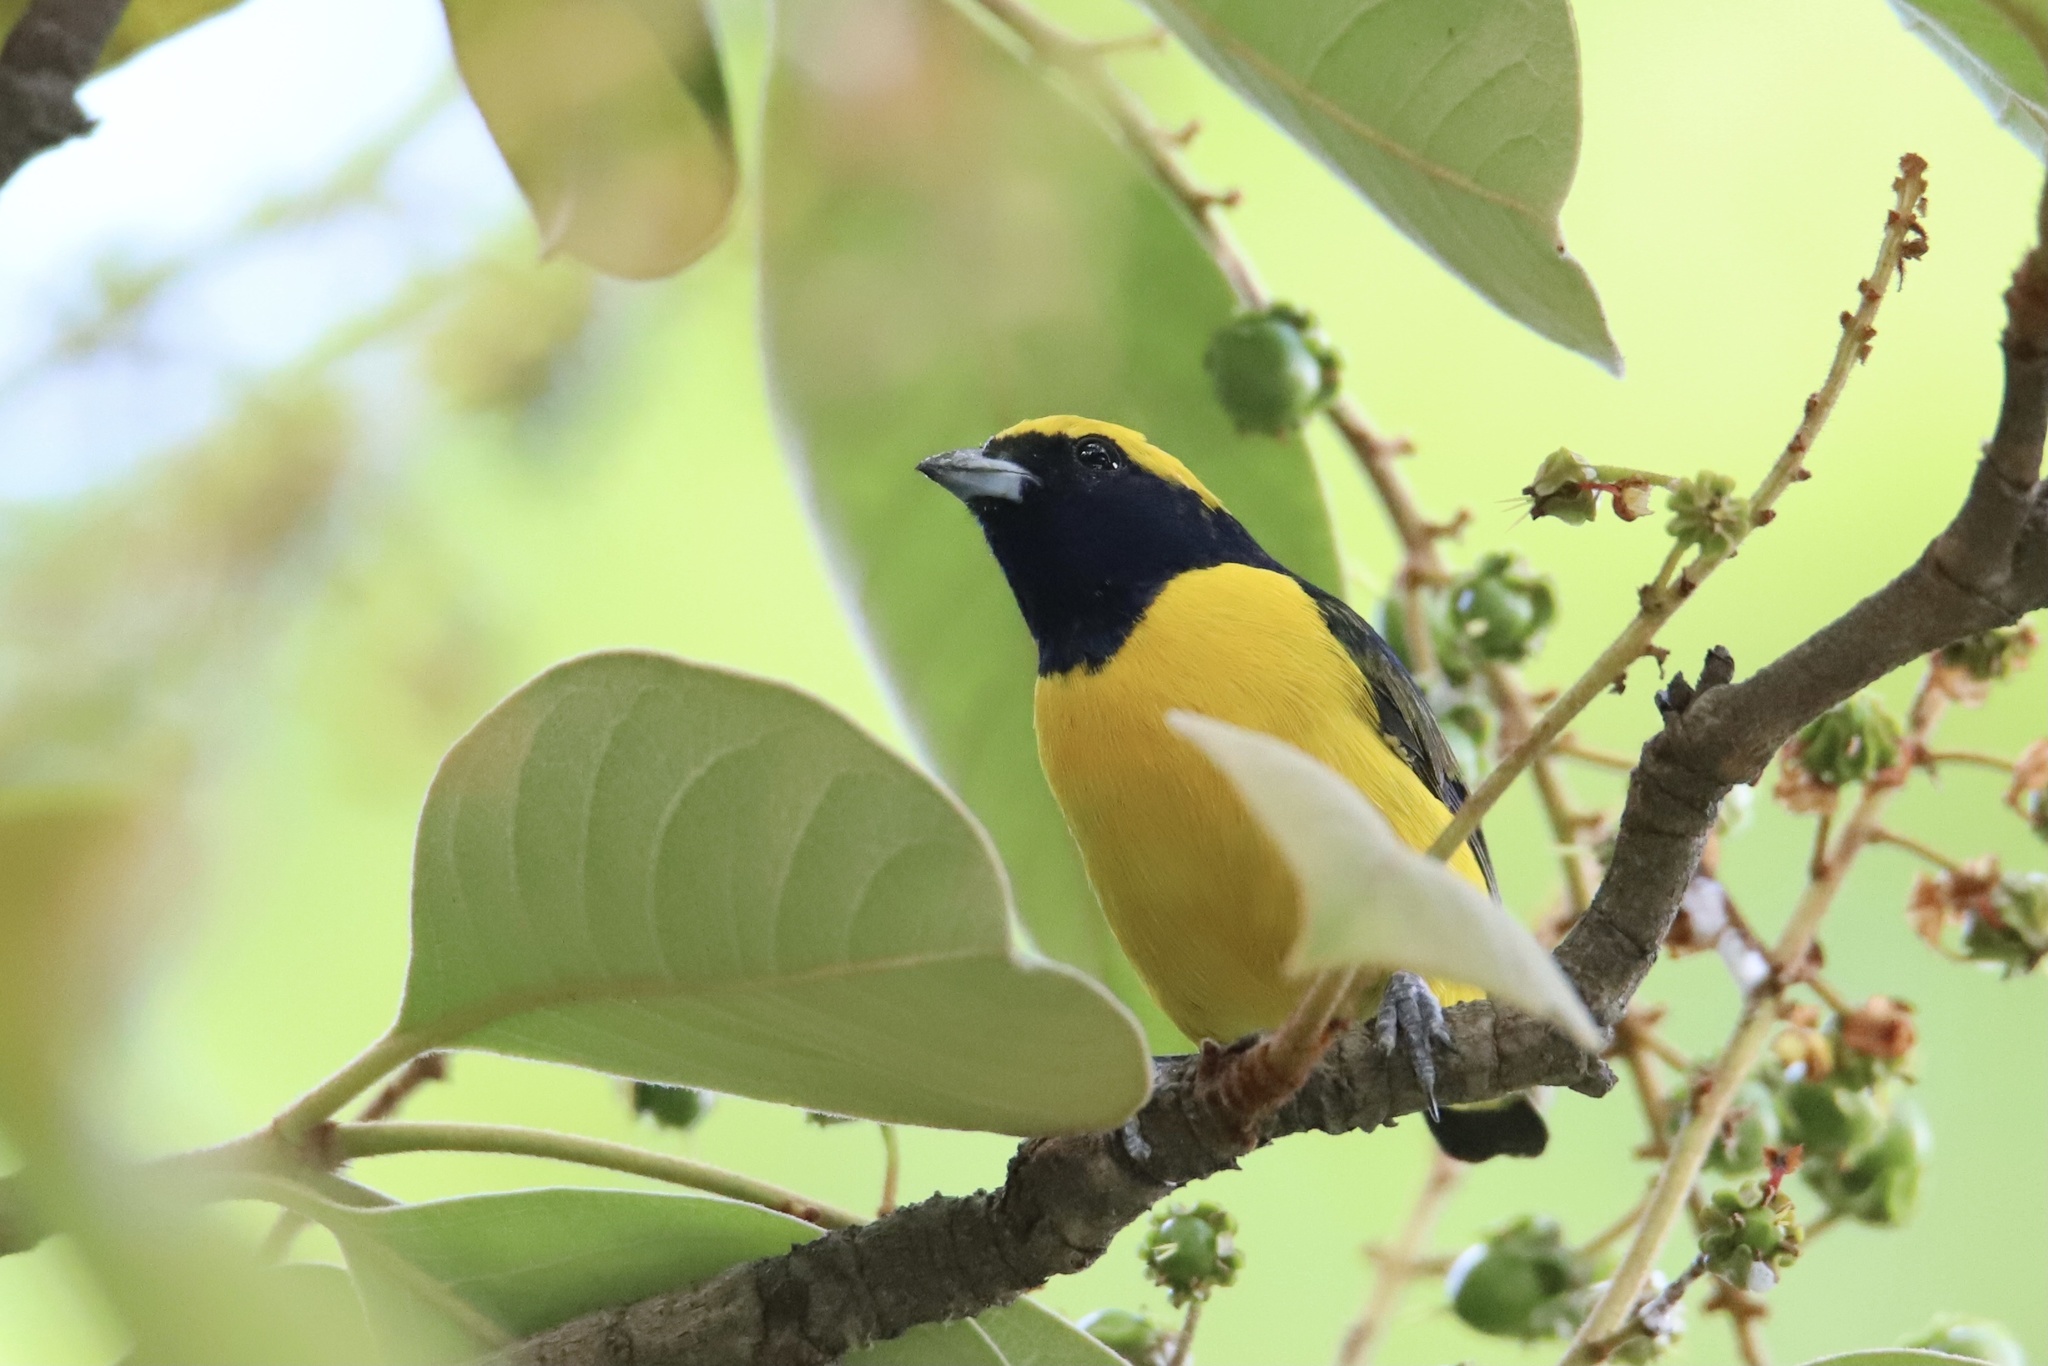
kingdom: Animalia
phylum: Chordata
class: Aves
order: Passeriformes
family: Fringillidae
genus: Euphonia
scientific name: Euphonia luteicapilla
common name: Yellow-crowned euphonia
